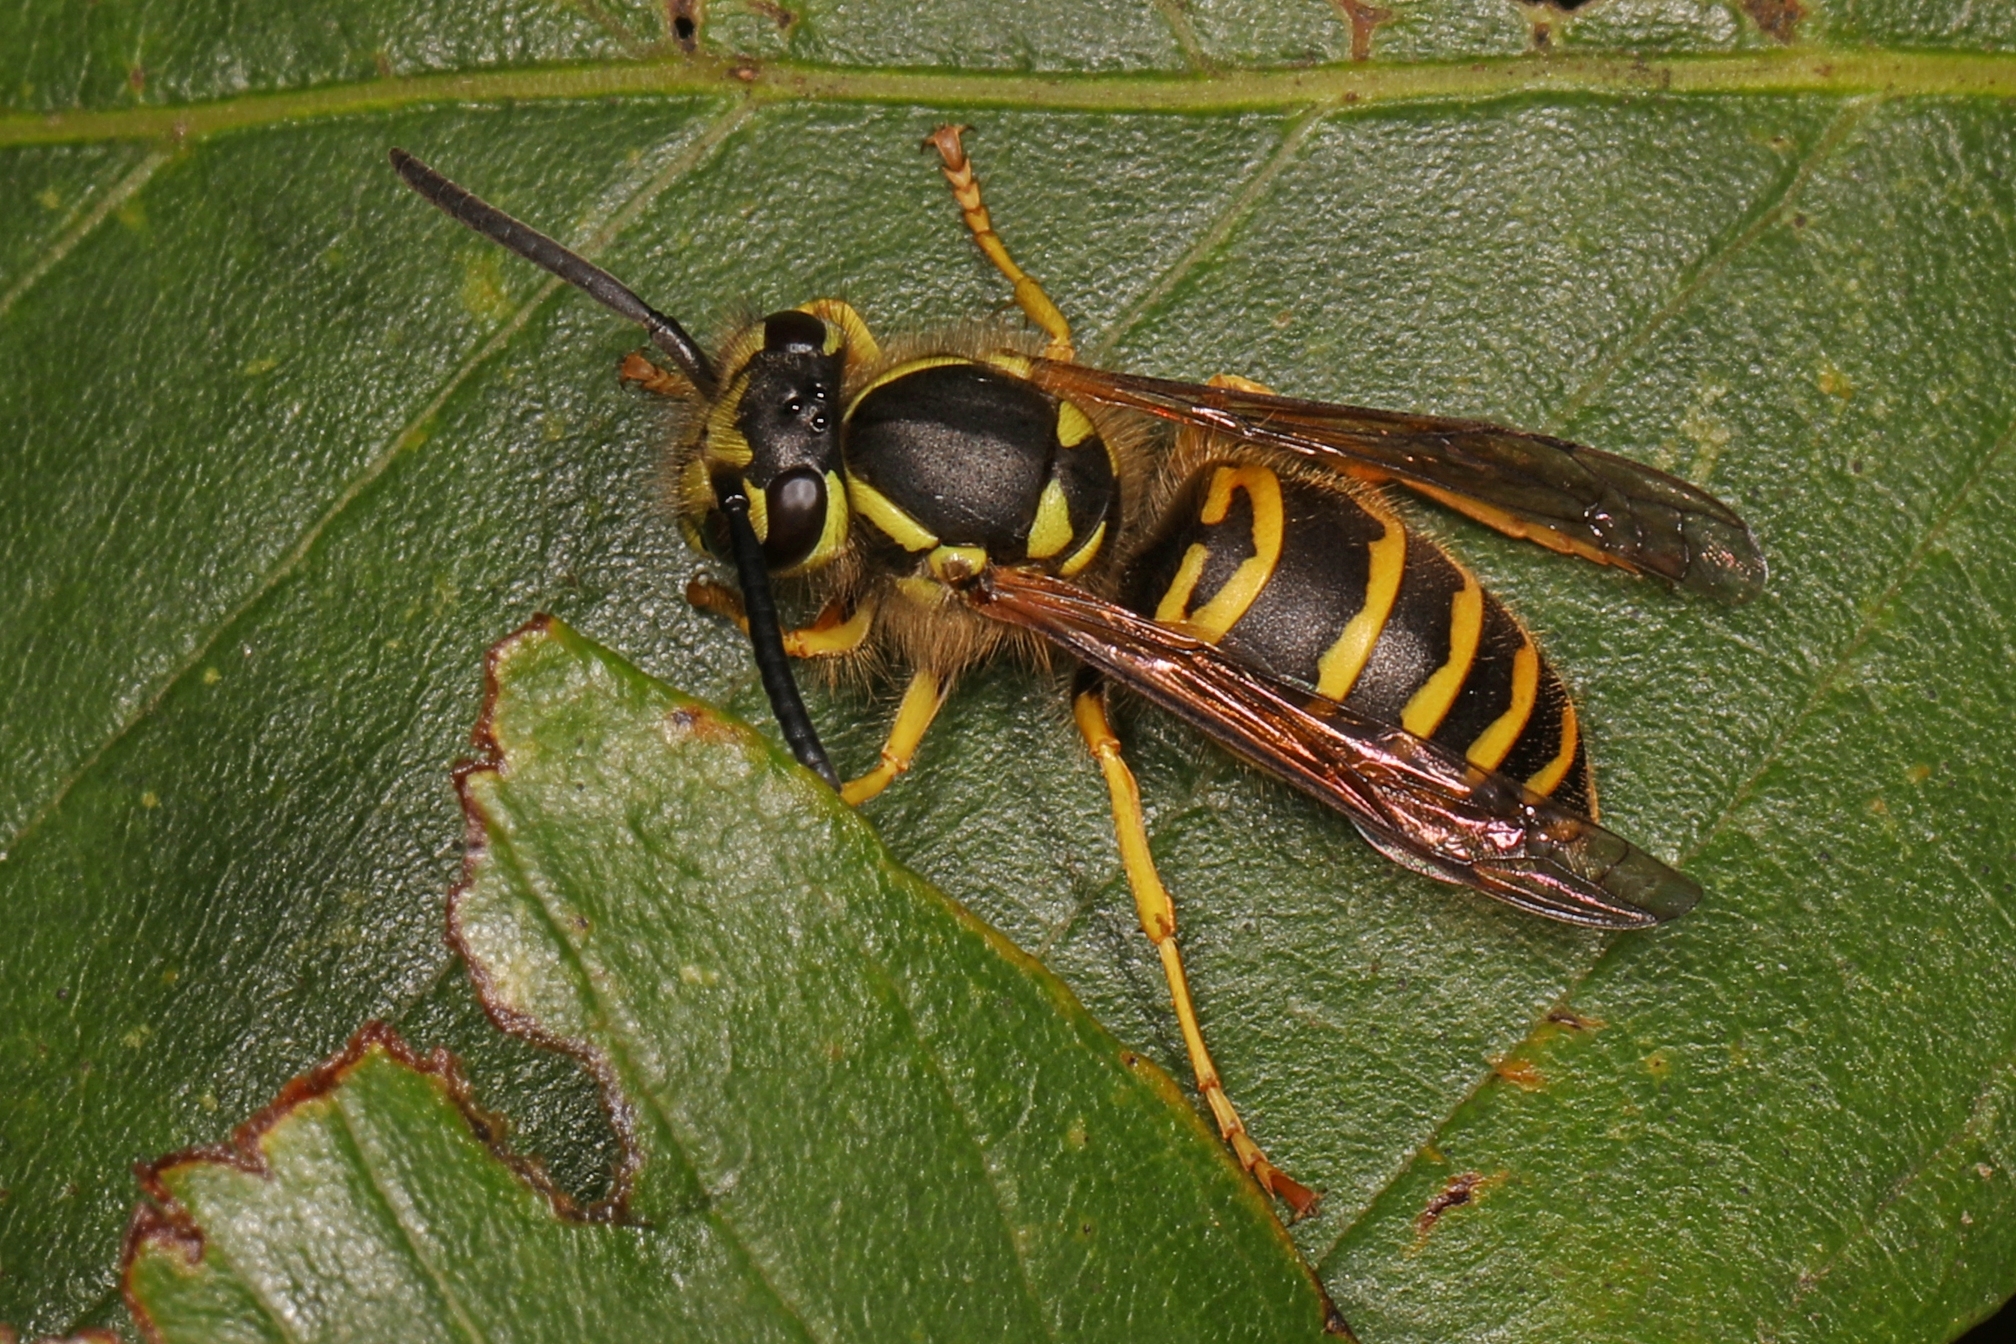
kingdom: Animalia
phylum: Arthropoda
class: Insecta
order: Hymenoptera
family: Vespidae
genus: Vespula
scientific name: Vespula maculifrons
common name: Eastern yellowjacket
